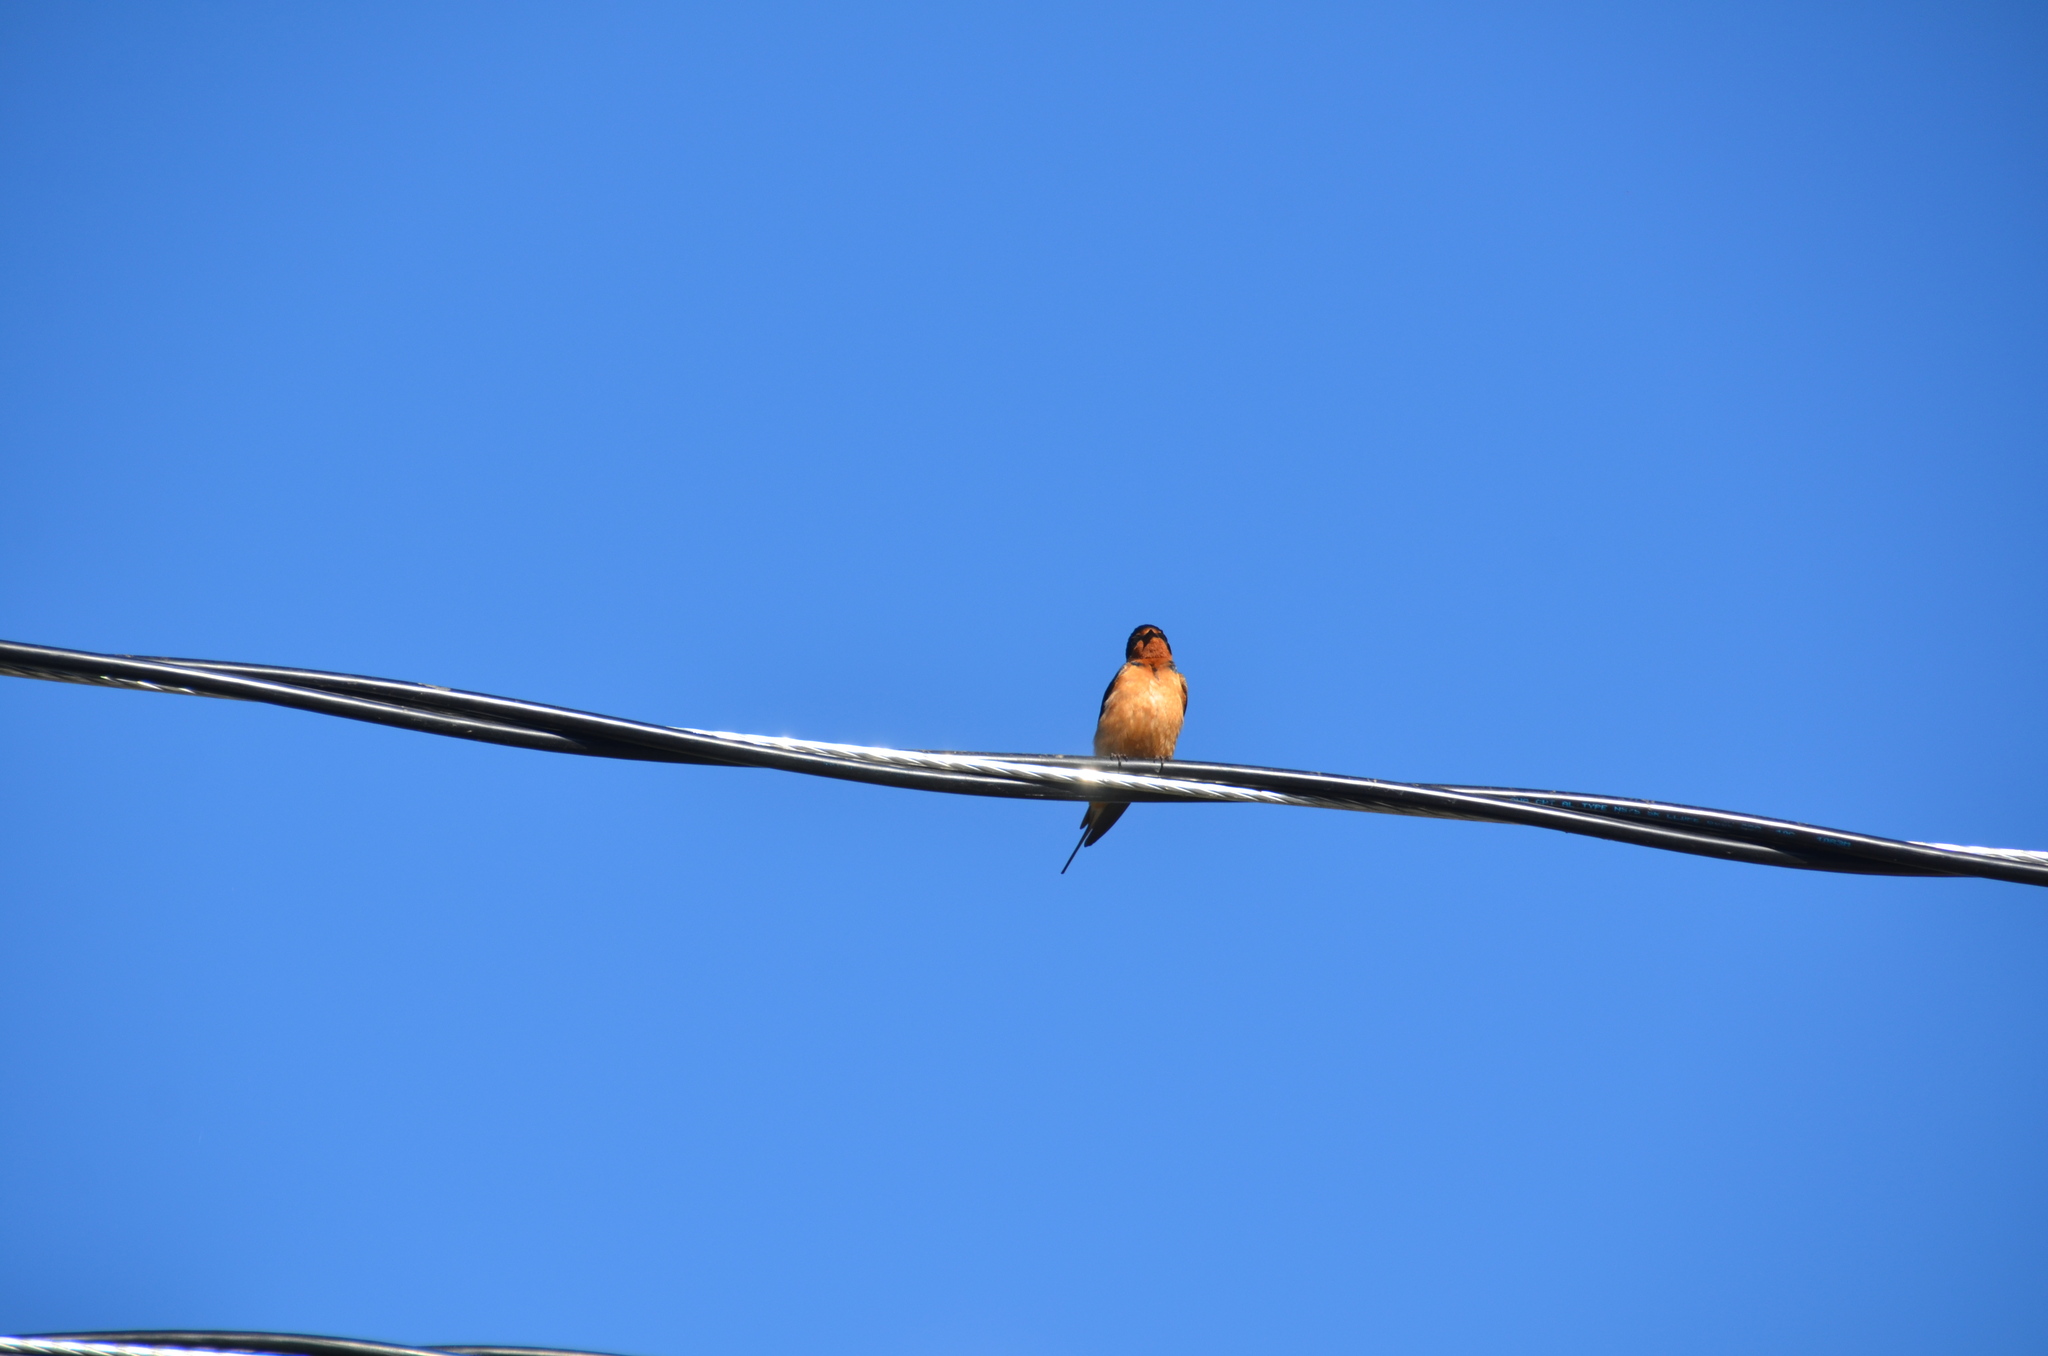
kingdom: Animalia
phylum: Chordata
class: Aves
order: Passeriformes
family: Hirundinidae
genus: Hirundo
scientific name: Hirundo rustica
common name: Barn swallow
